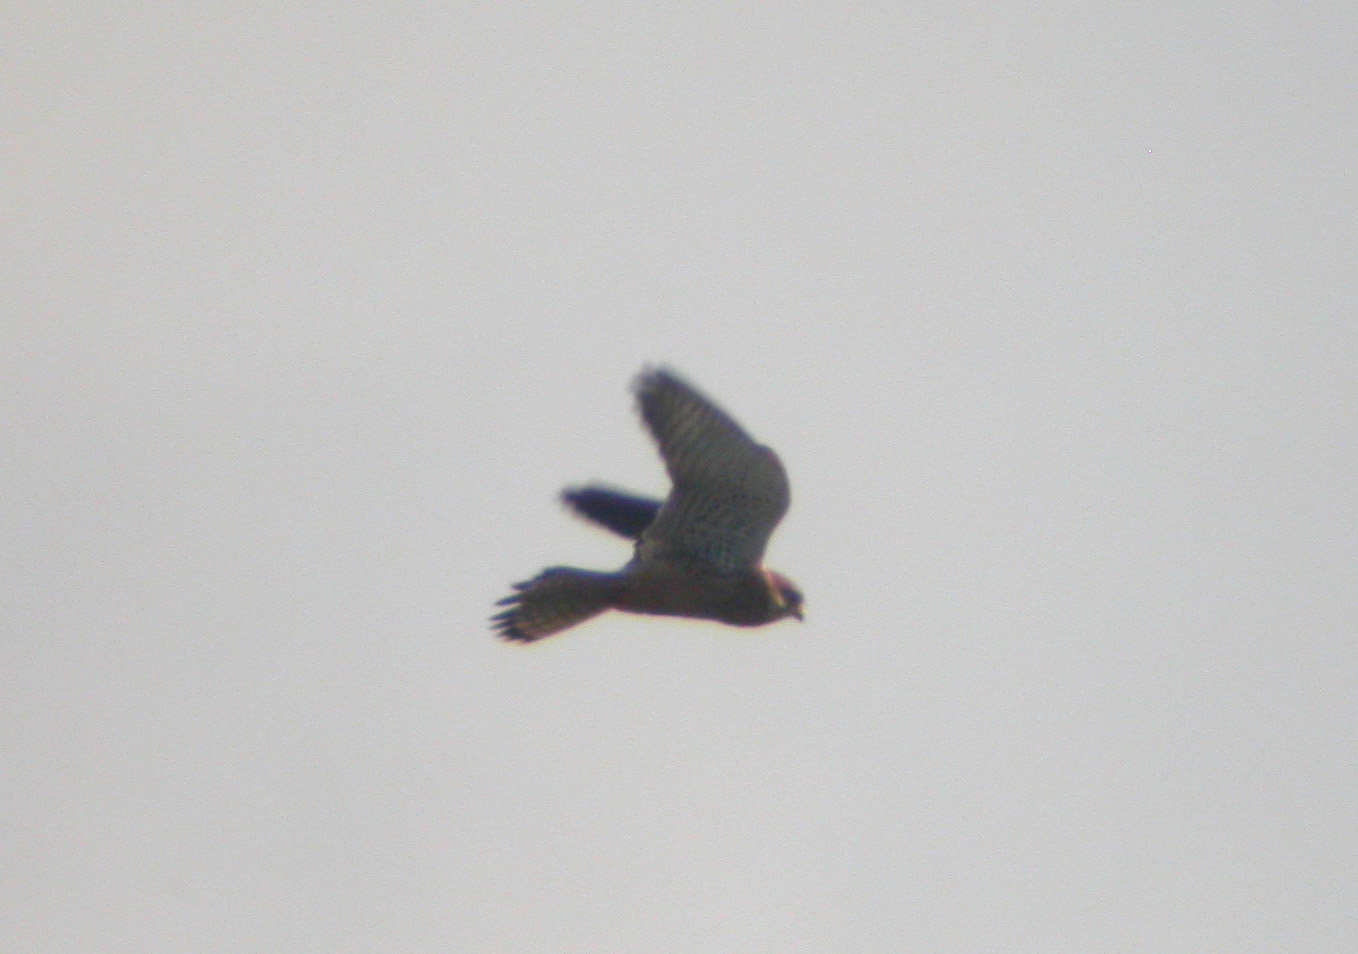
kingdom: Animalia
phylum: Chordata
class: Aves
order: Falconiformes
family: Falconidae
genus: Falco
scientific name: Falco tinnunculus
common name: Common kestrel
